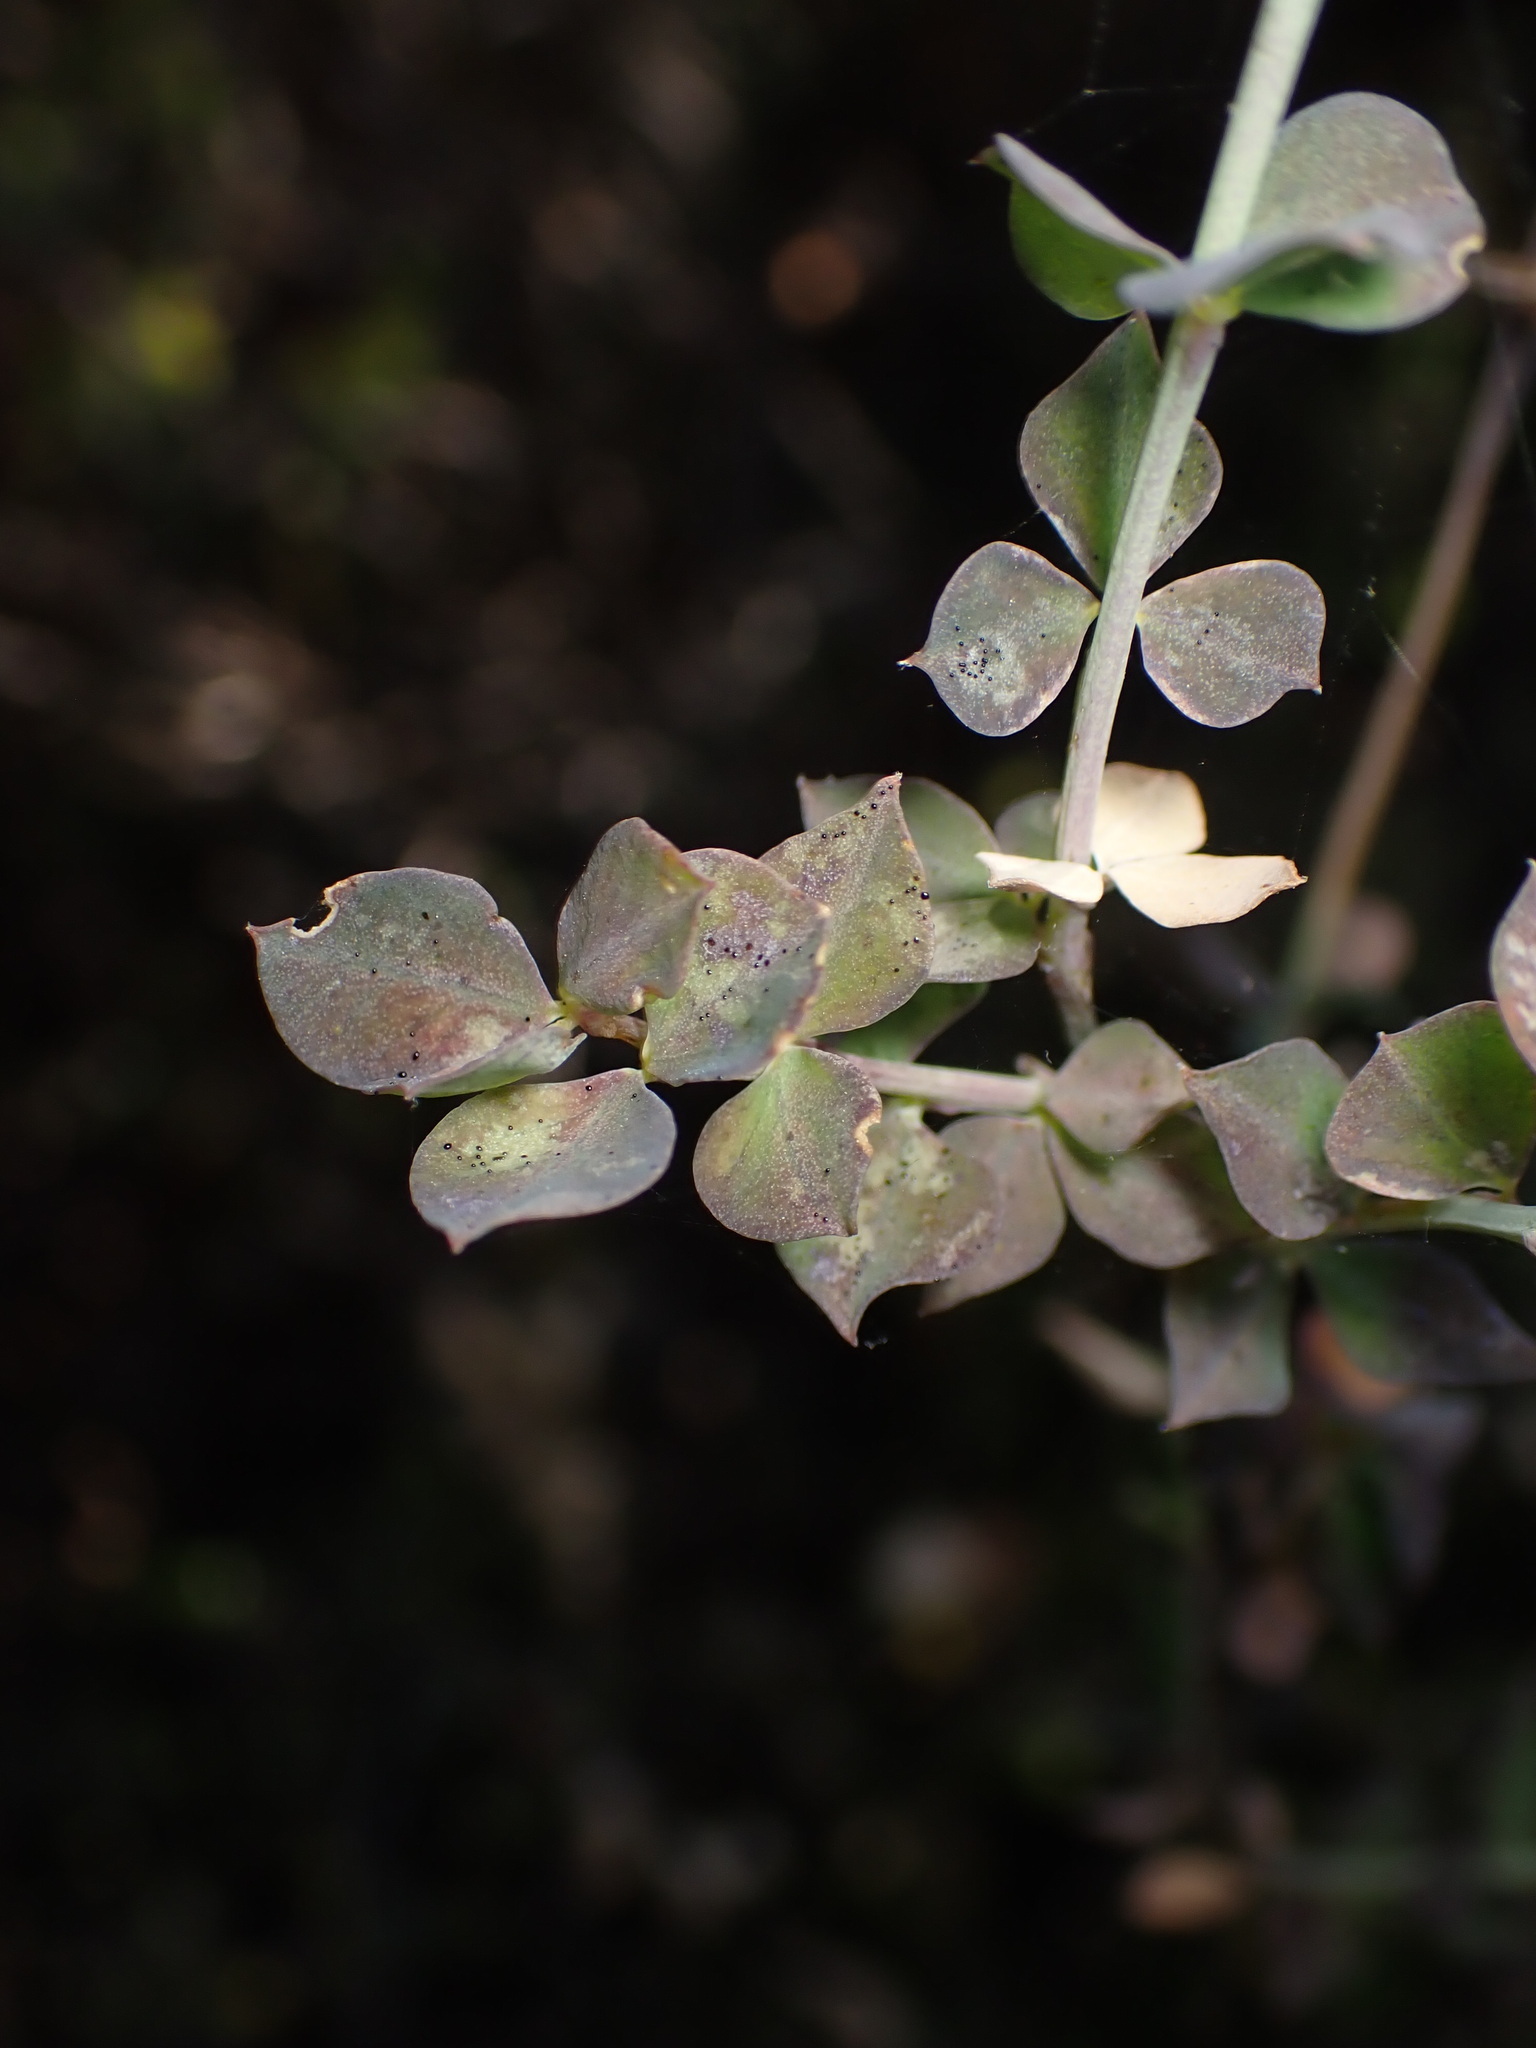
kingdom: Plantae
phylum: Tracheophyta
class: Magnoliopsida
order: Fabales
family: Fabaceae
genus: Cytisophyllum
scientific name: Cytisophyllum sessilifolium
